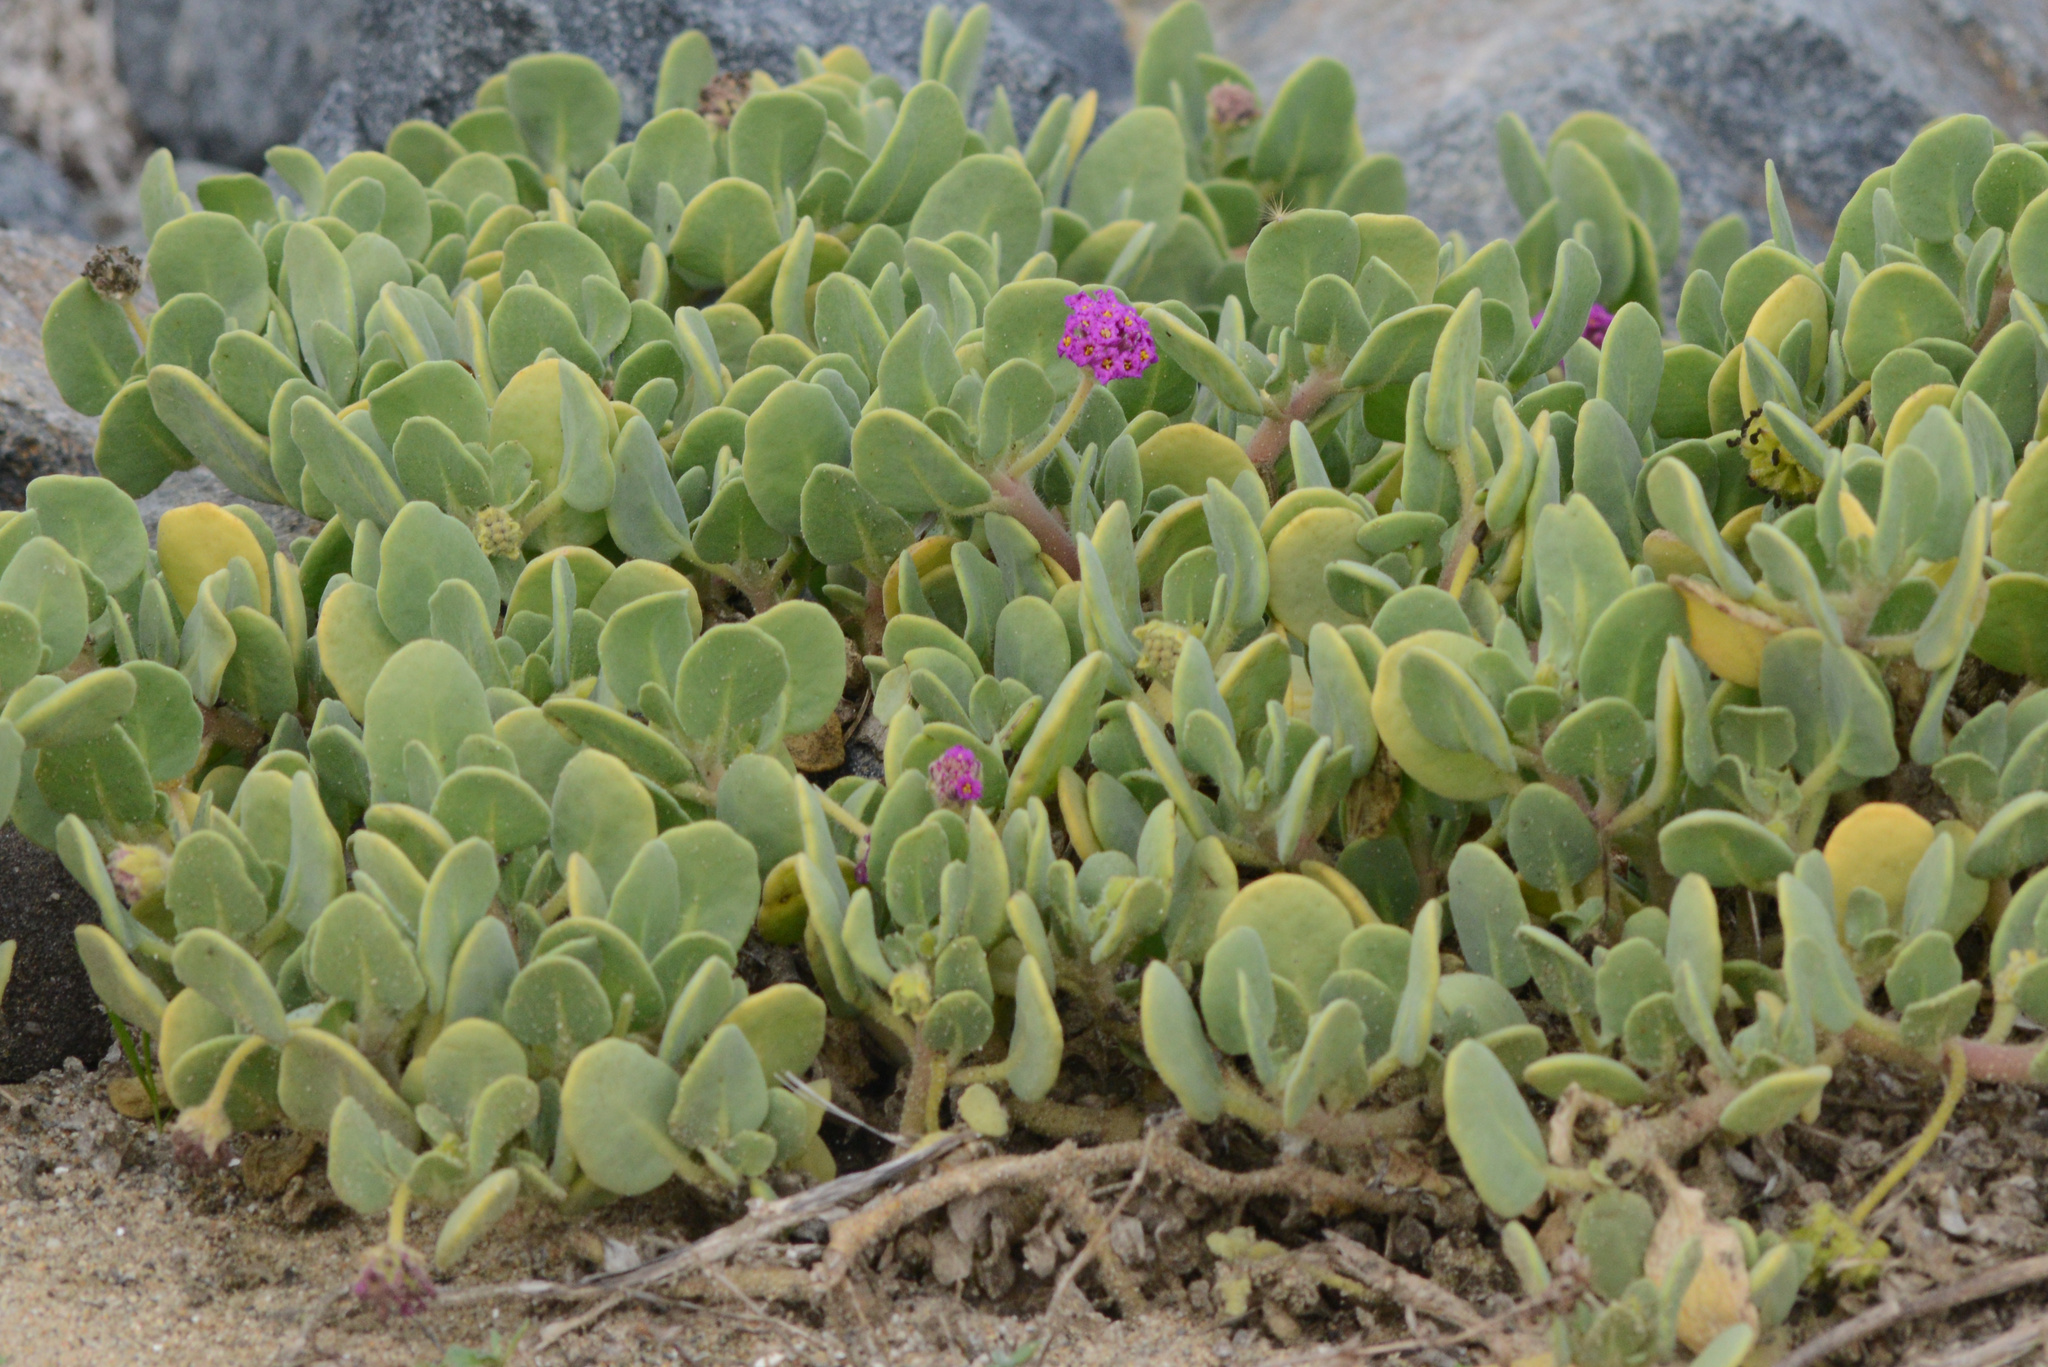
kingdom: Plantae
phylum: Tracheophyta
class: Magnoliopsida
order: Caryophyllales
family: Nyctaginaceae
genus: Abronia
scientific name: Abronia maritima
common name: Red sand-verbena
